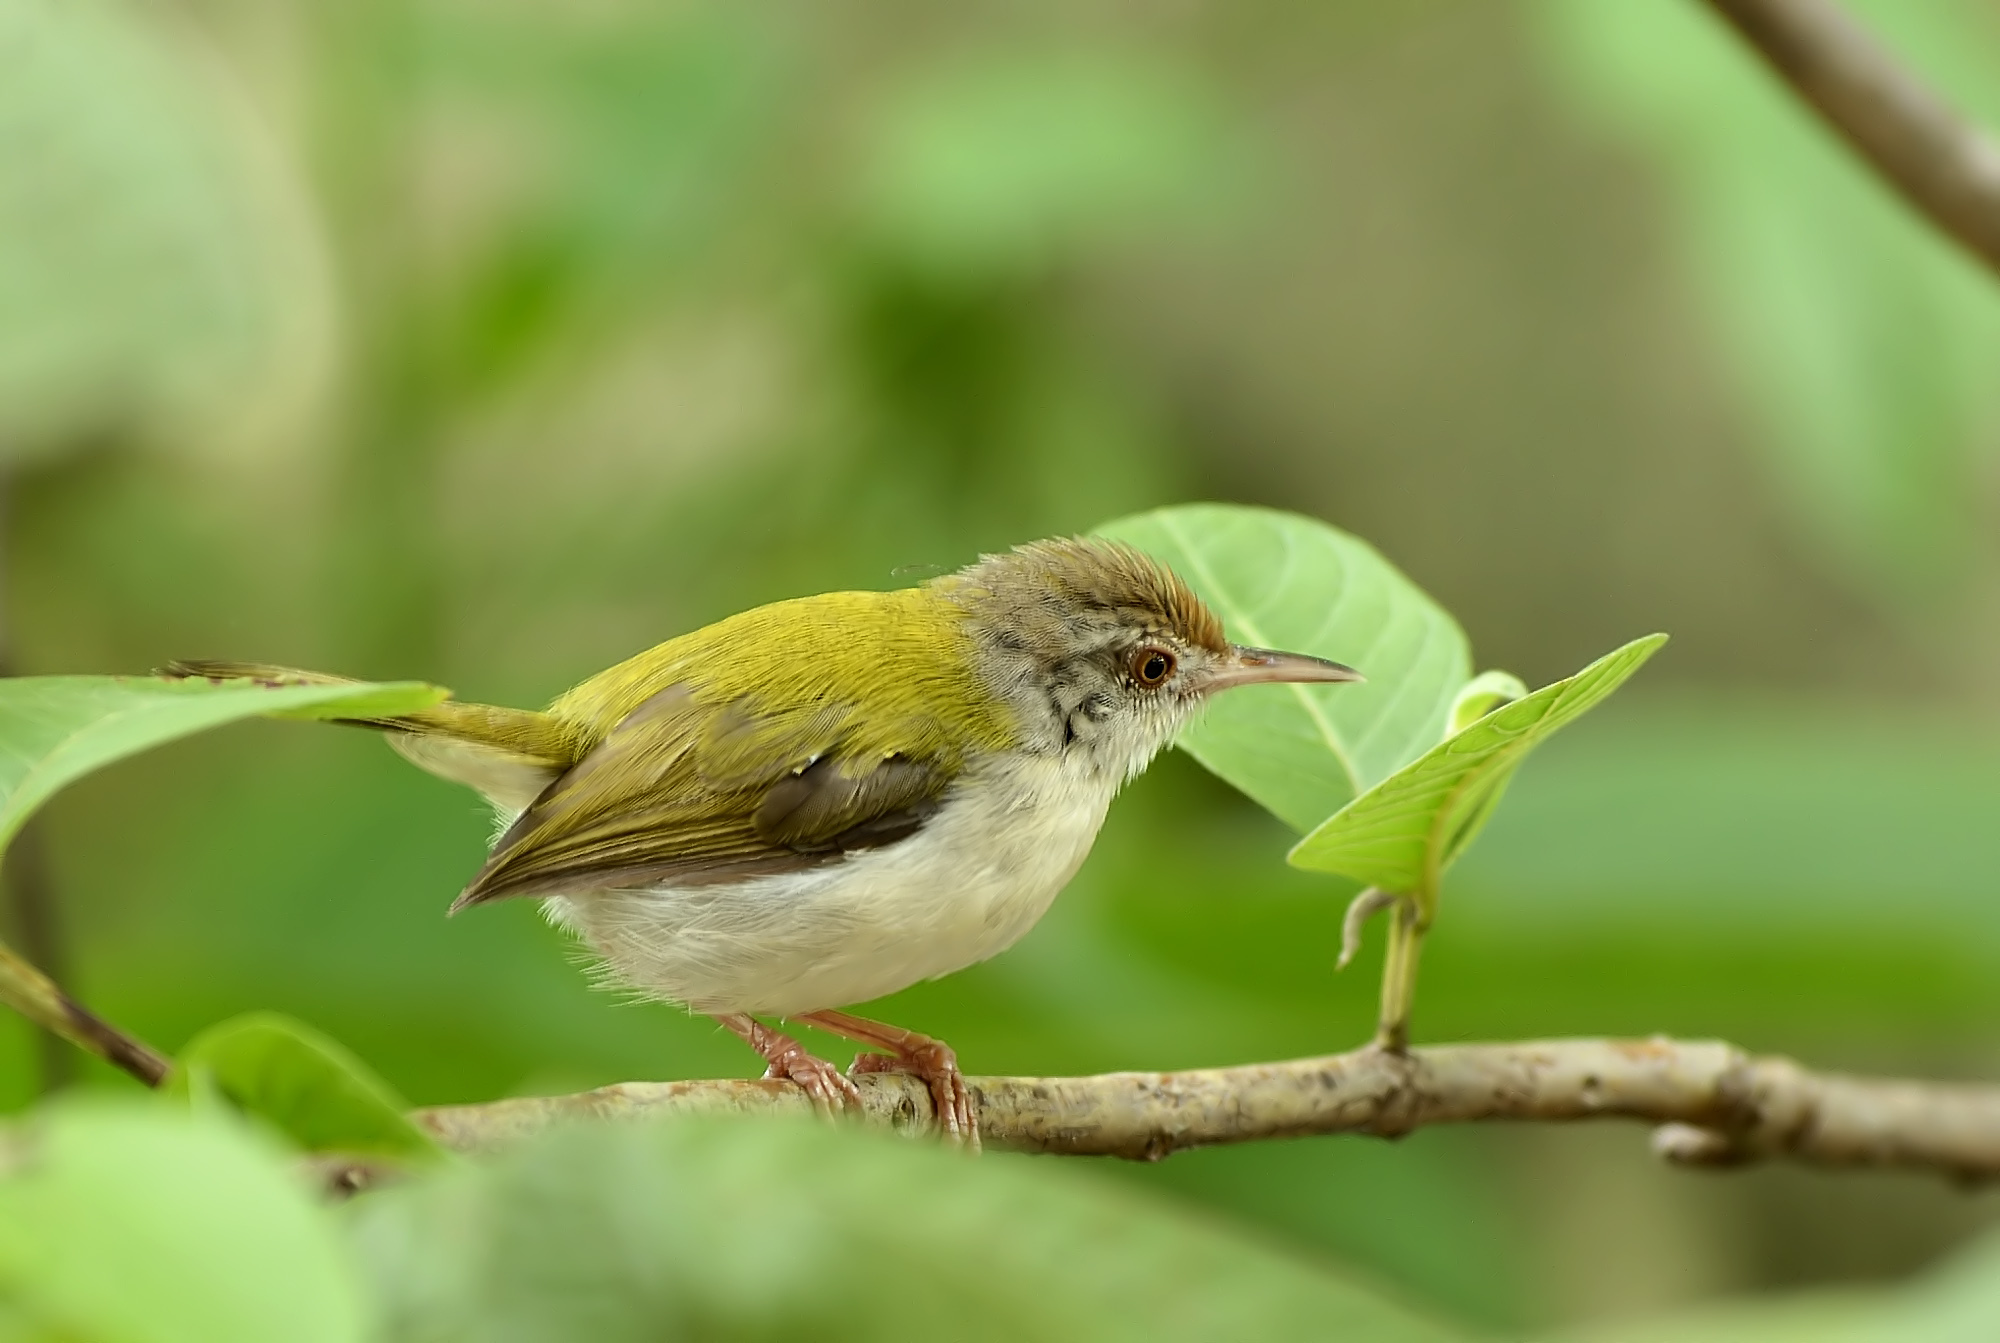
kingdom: Animalia
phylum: Chordata
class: Aves
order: Passeriformes
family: Cisticolidae
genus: Orthotomus
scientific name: Orthotomus sutorius
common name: Common tailorbird
